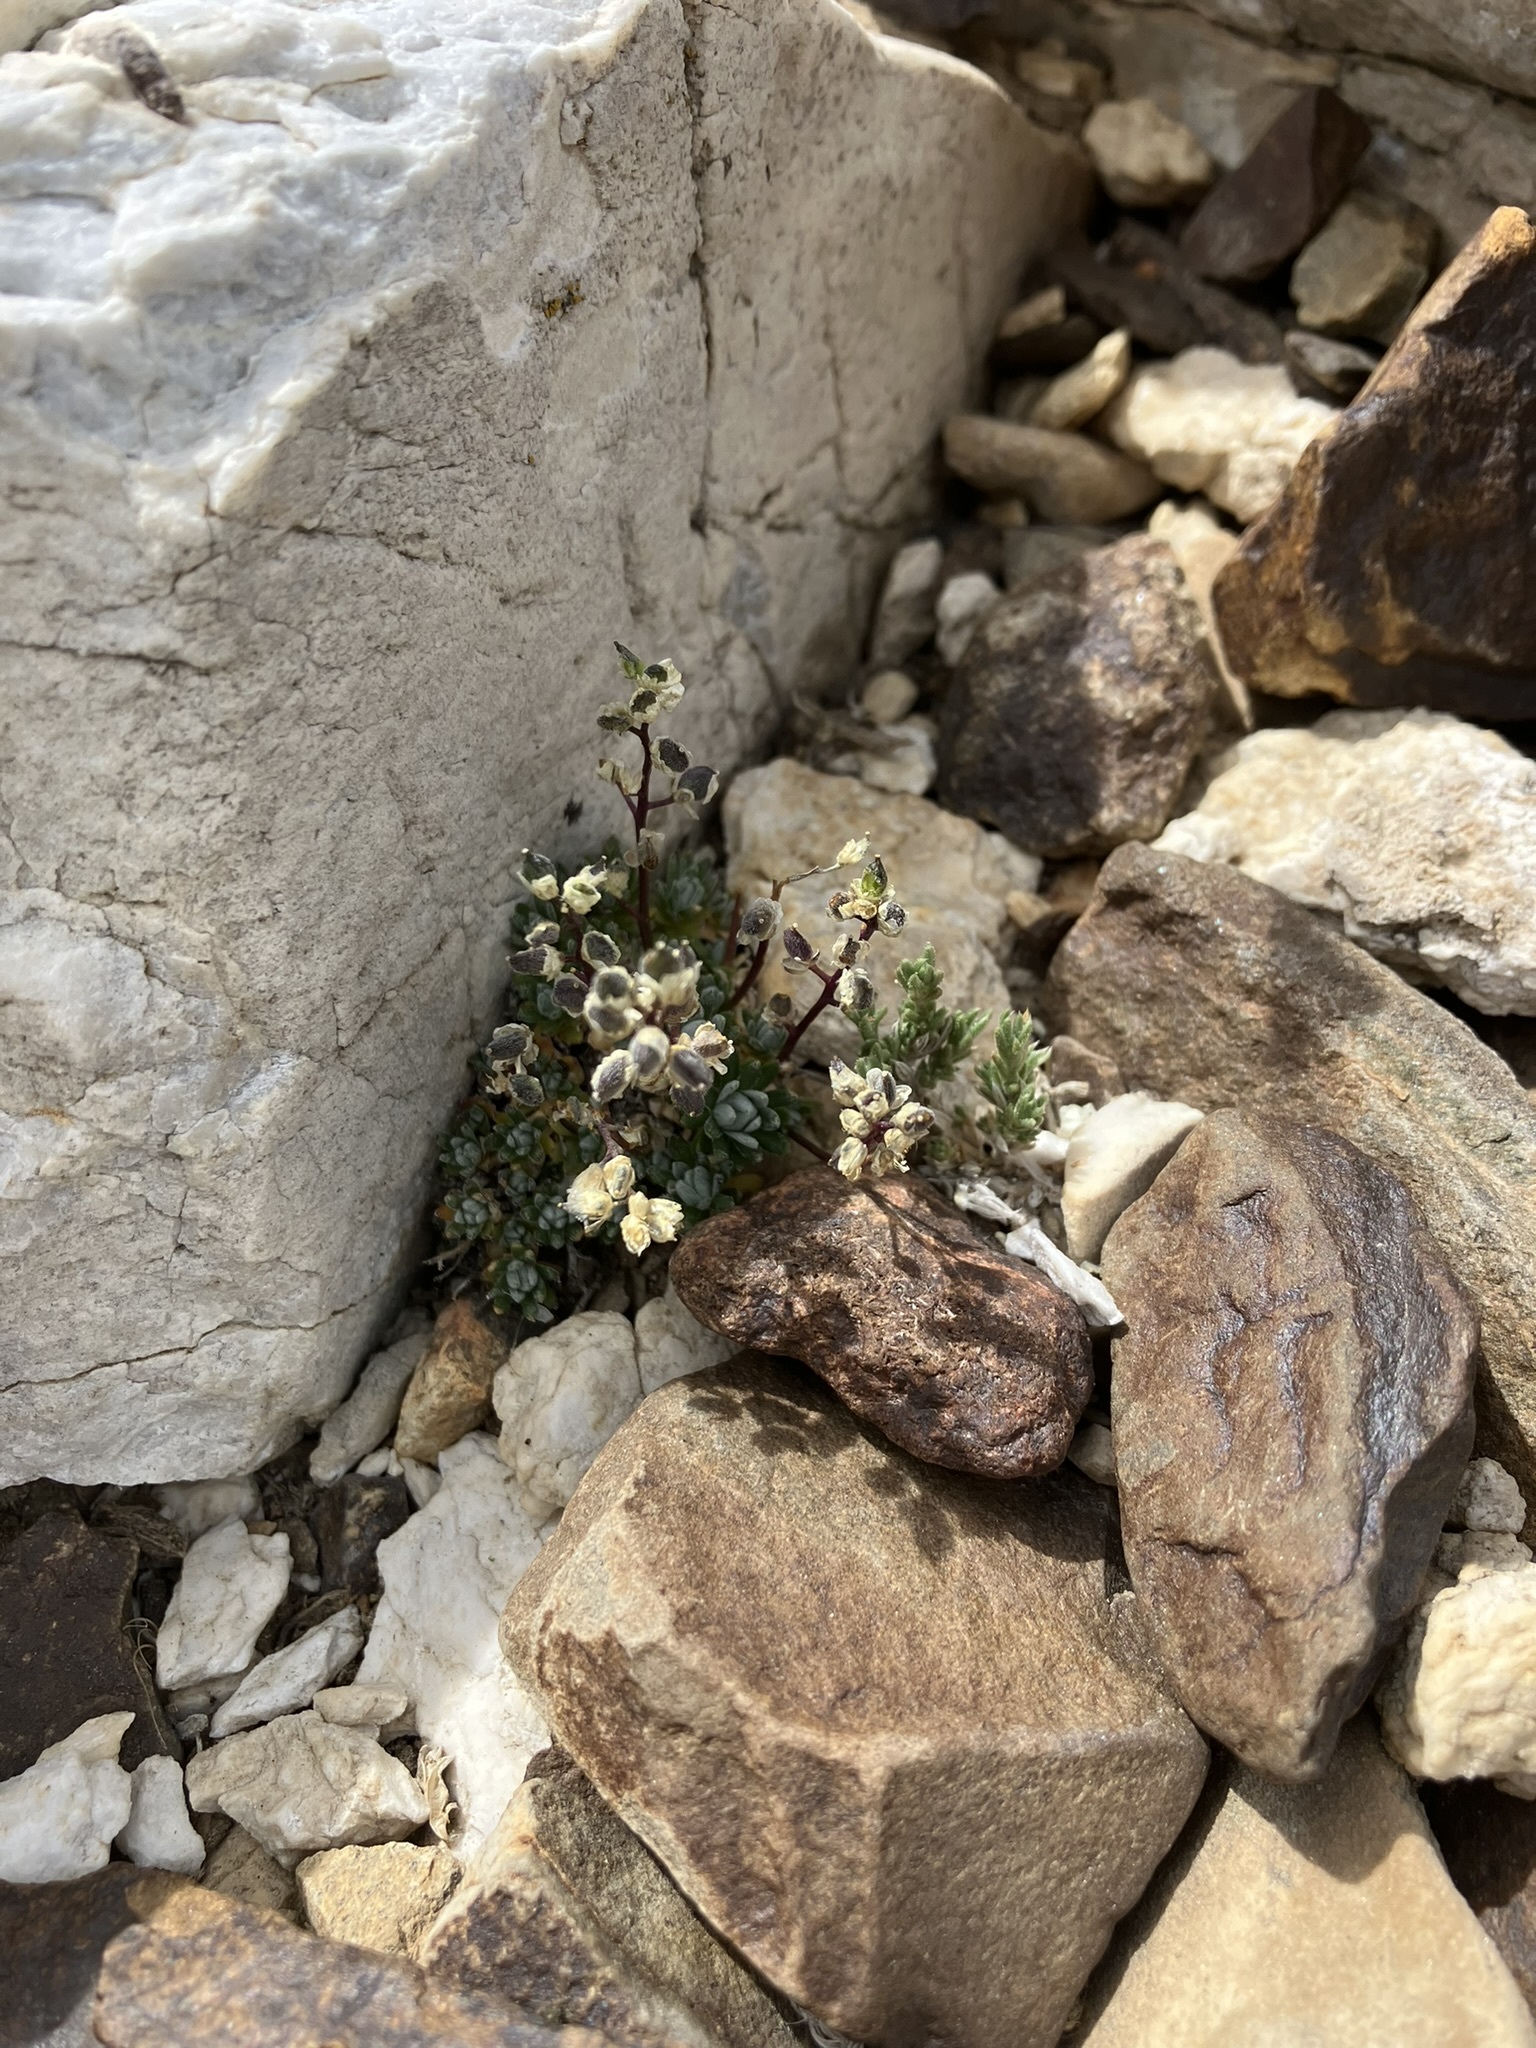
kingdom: Plantae
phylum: Tracheophyta
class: Magnoliopsida
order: Brassicales
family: Brassicaceae
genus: Draba
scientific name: Draba oligosperma
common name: Few-seed draba
